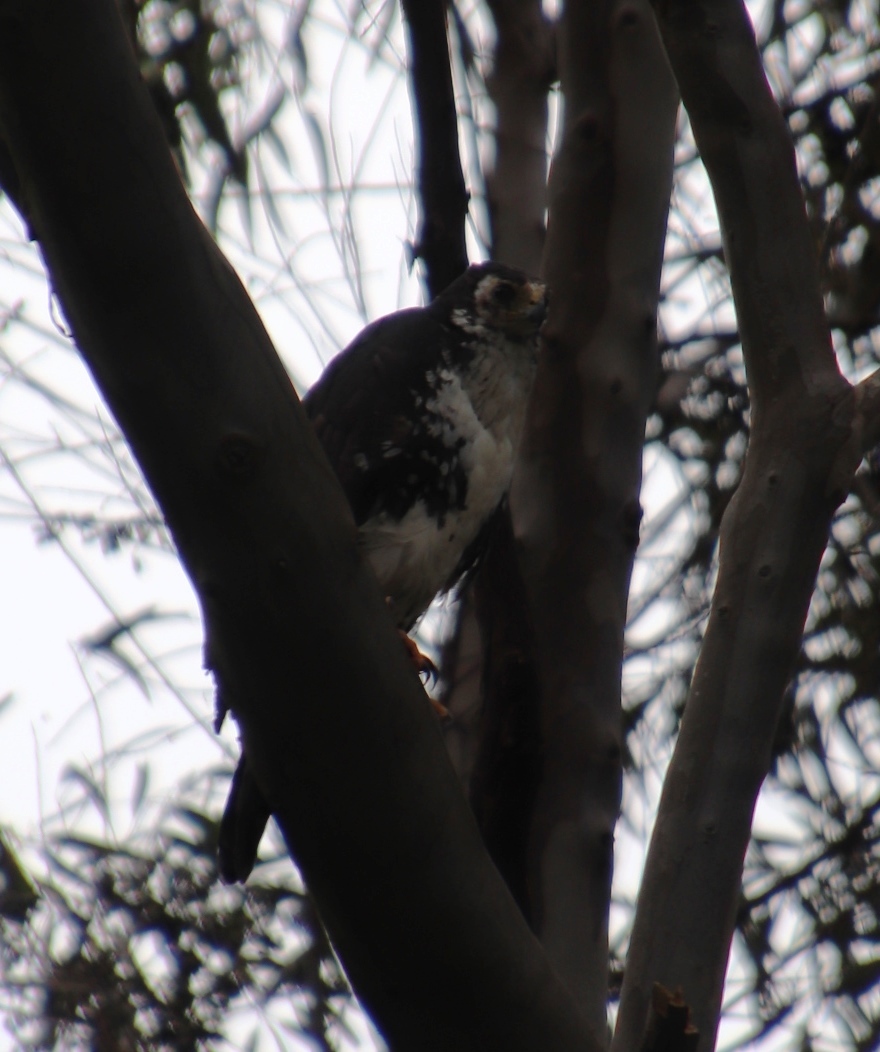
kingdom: Animalia
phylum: Chordata
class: Aves
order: Accipitriformes
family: Accipitridae
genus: Accipiter
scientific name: Accipiter melanoleucus
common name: Black sparrowhawk
